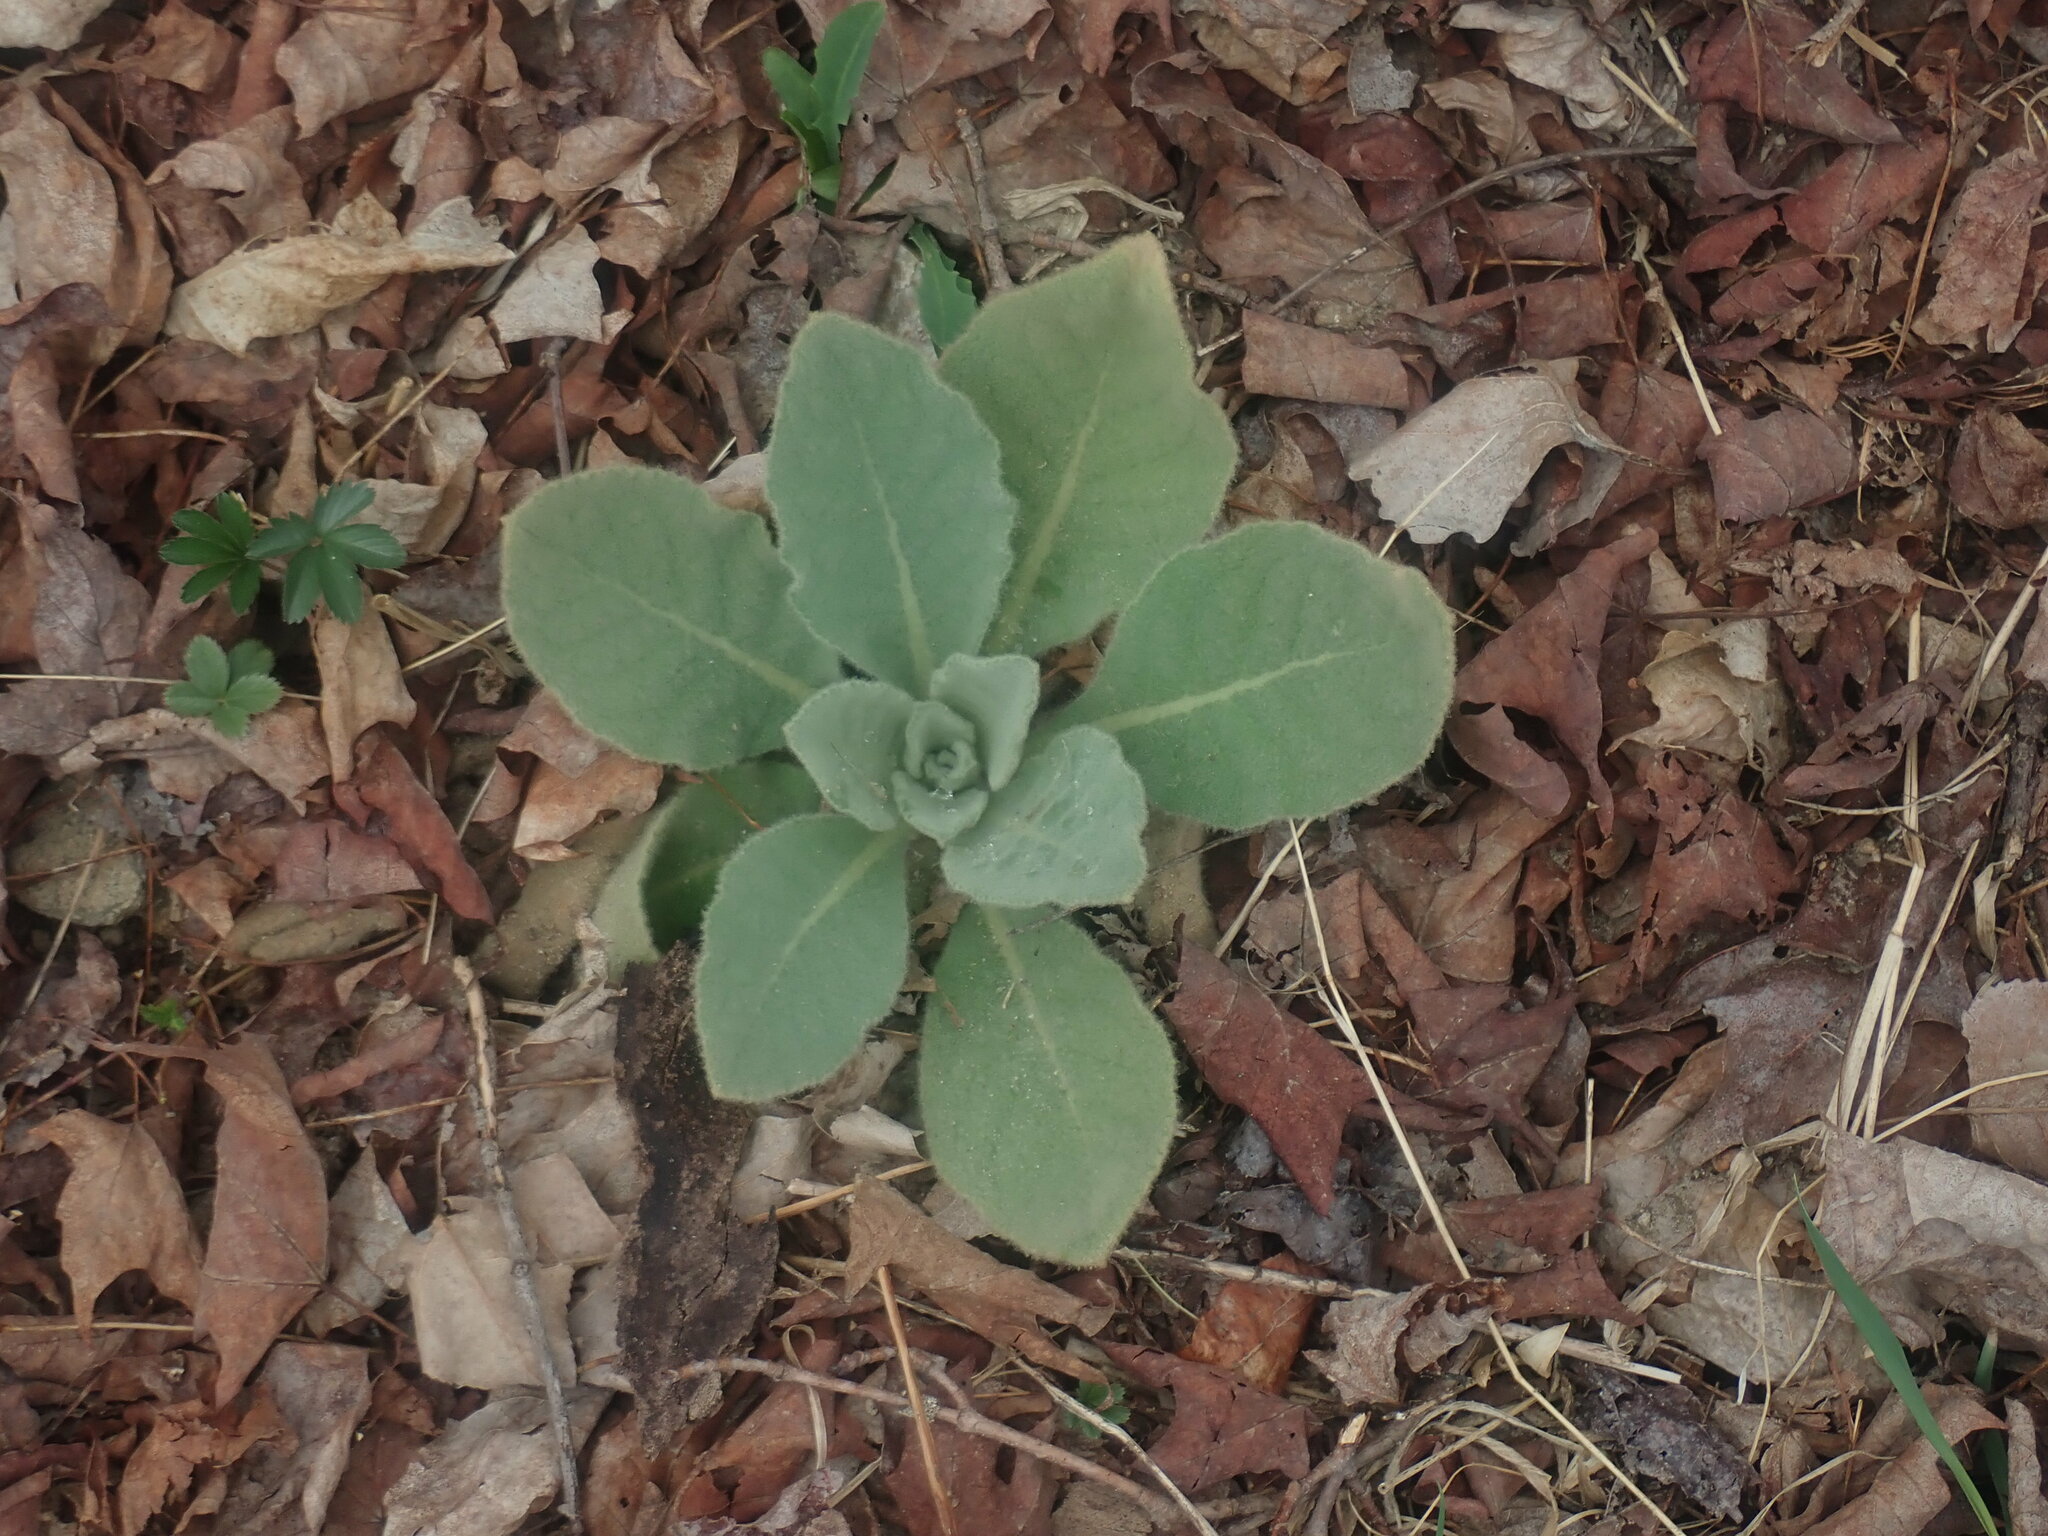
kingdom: Plantae
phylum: Tracheophyta
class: Magnoliopsida
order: Lamiales
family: Scrophulariaceae
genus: Verbascum
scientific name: Verbascum thapsus
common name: Common mullein
